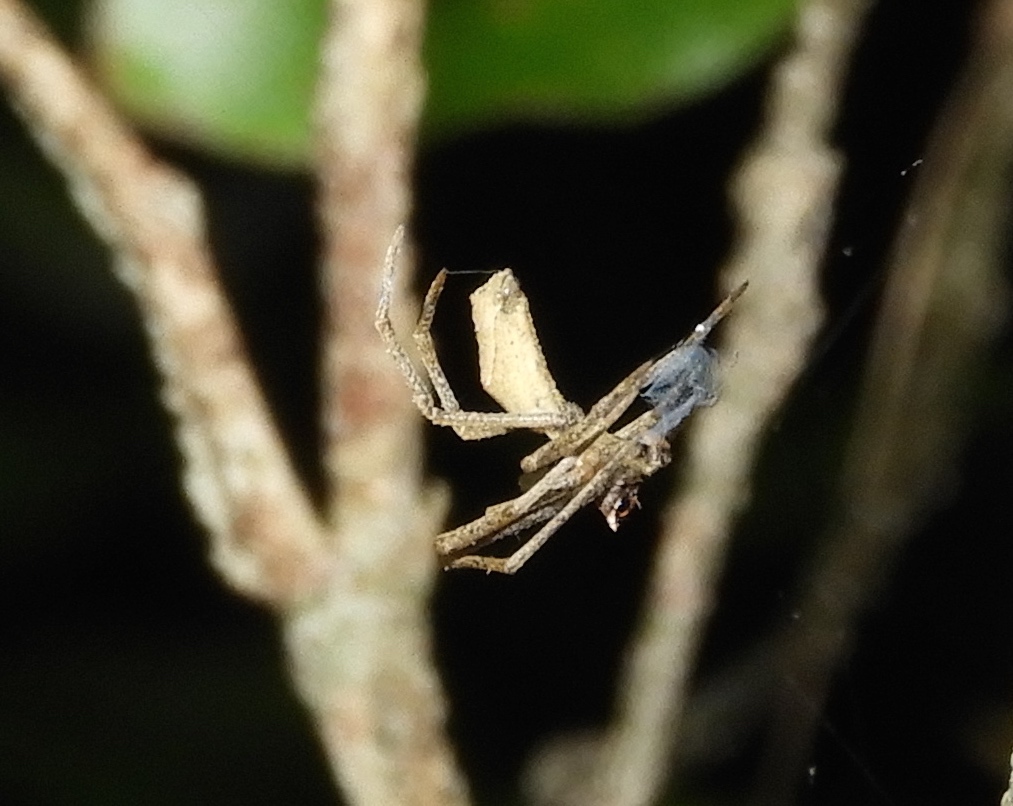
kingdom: Animalia
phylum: Arthropoda
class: Arachnida
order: Araneae
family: Deinopidae
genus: Deinopis
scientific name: Deinopis aurita
